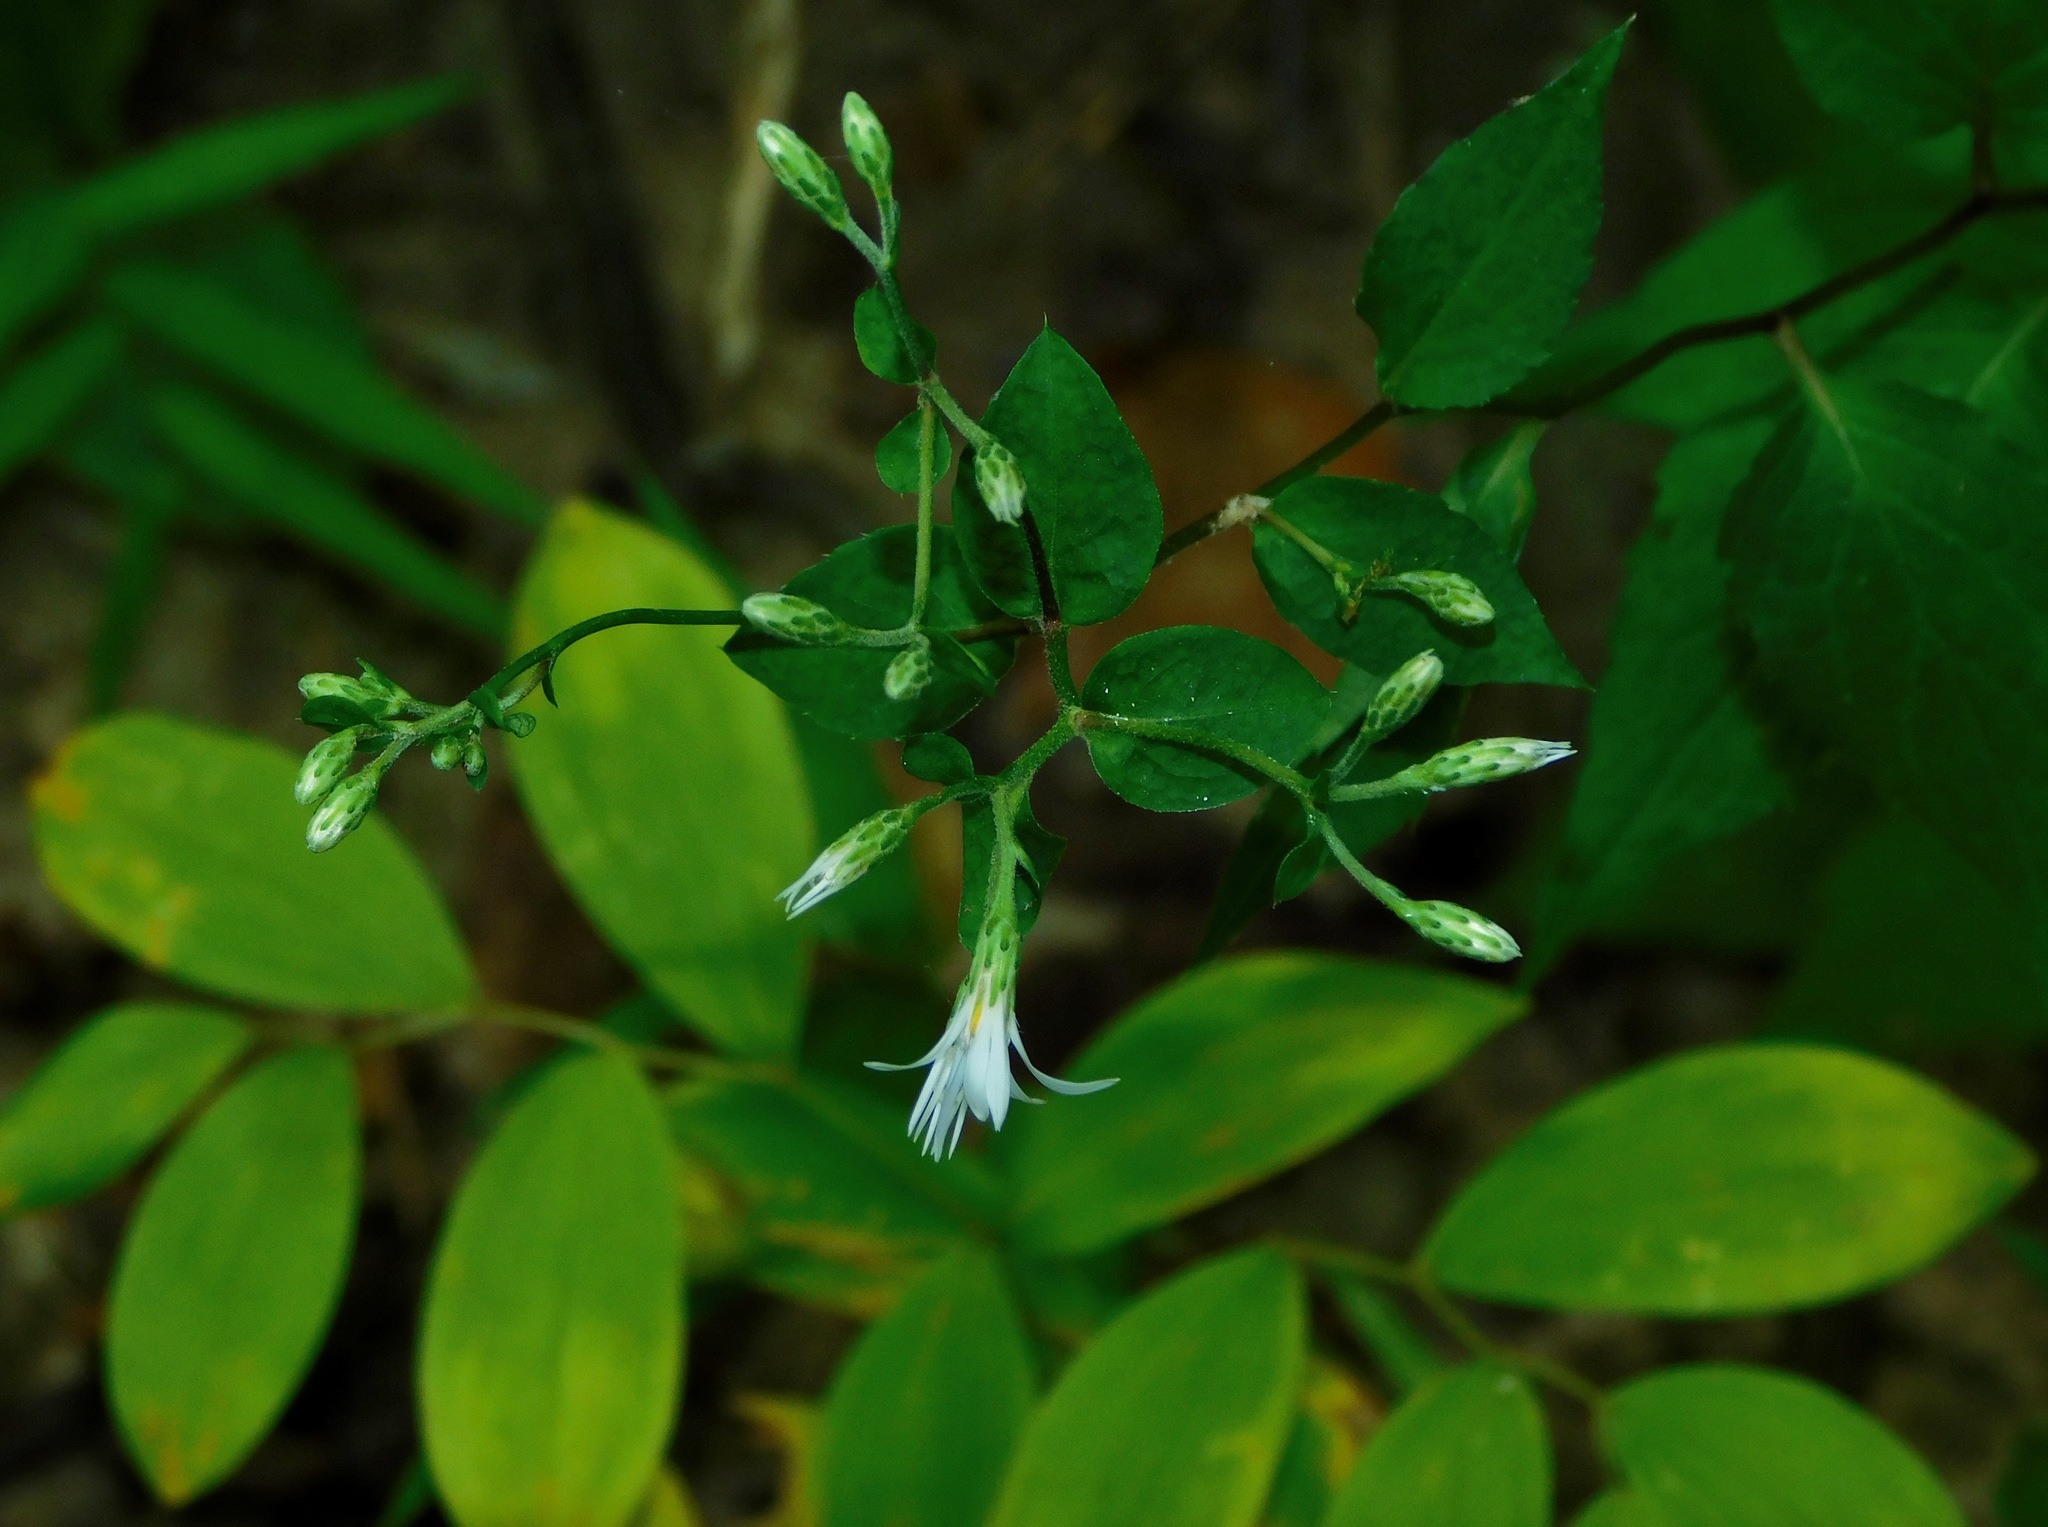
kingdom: Plantae
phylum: Tracheophyta
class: Magnoliopsida
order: Asterales
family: Asteraceae
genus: Eurybia
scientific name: Eurybia divaricata
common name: White wood aster
